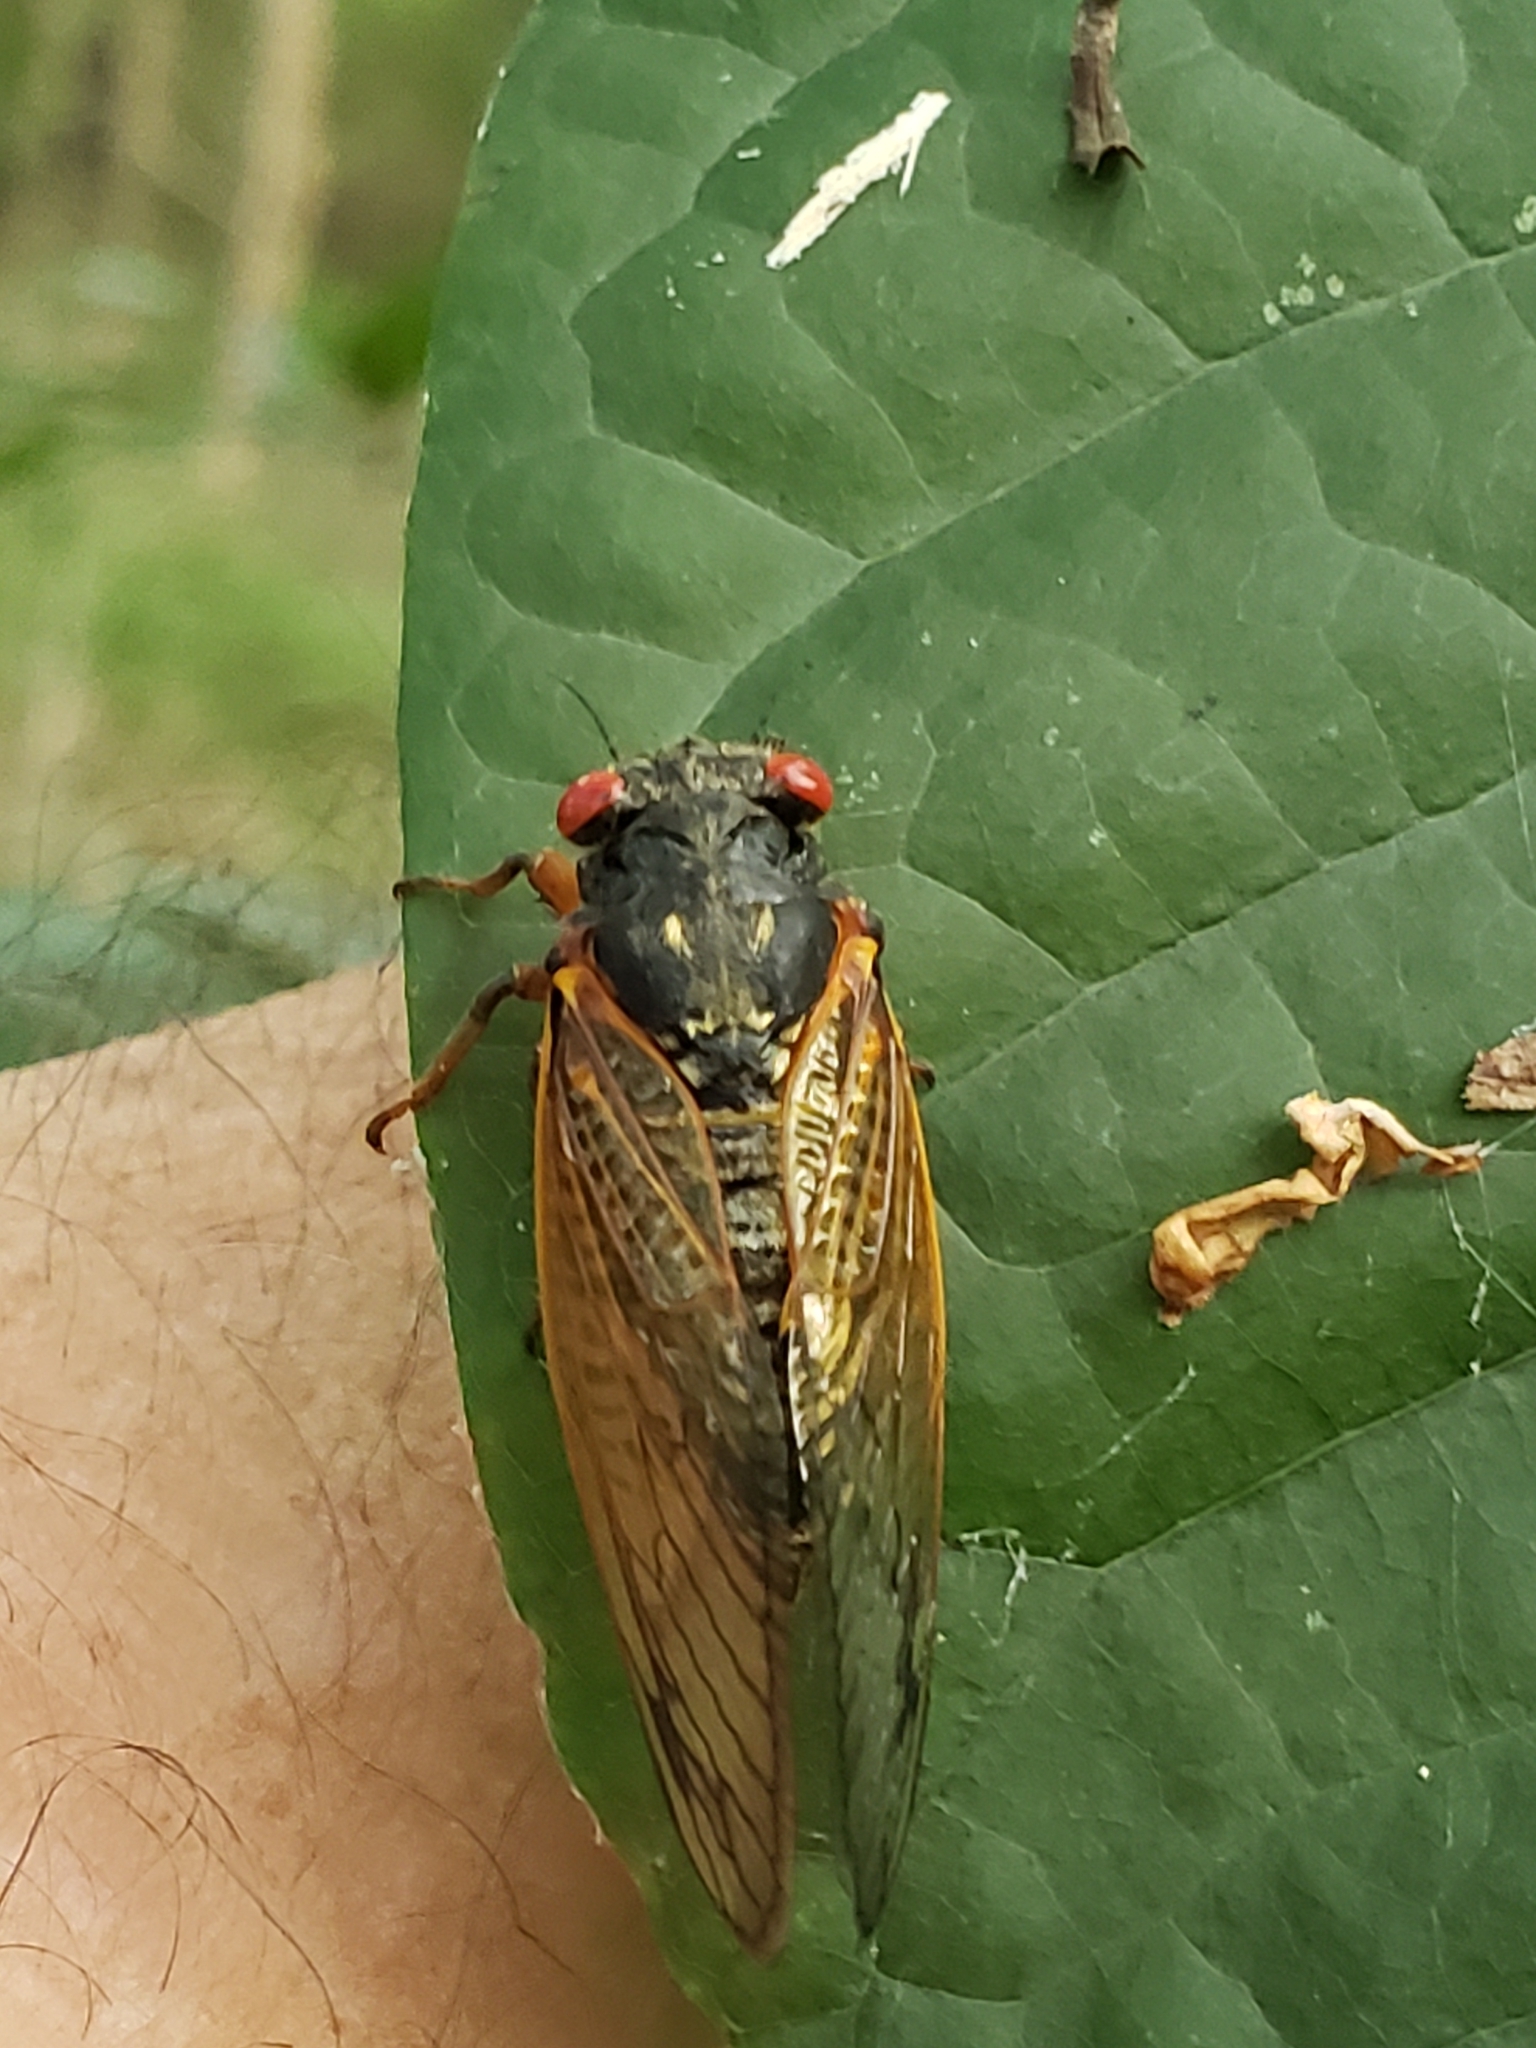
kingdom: Animalia
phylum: Arthropoda
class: Insecta
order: Hemiptera
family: Cicadidae
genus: Magicicada
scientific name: Magicicada
